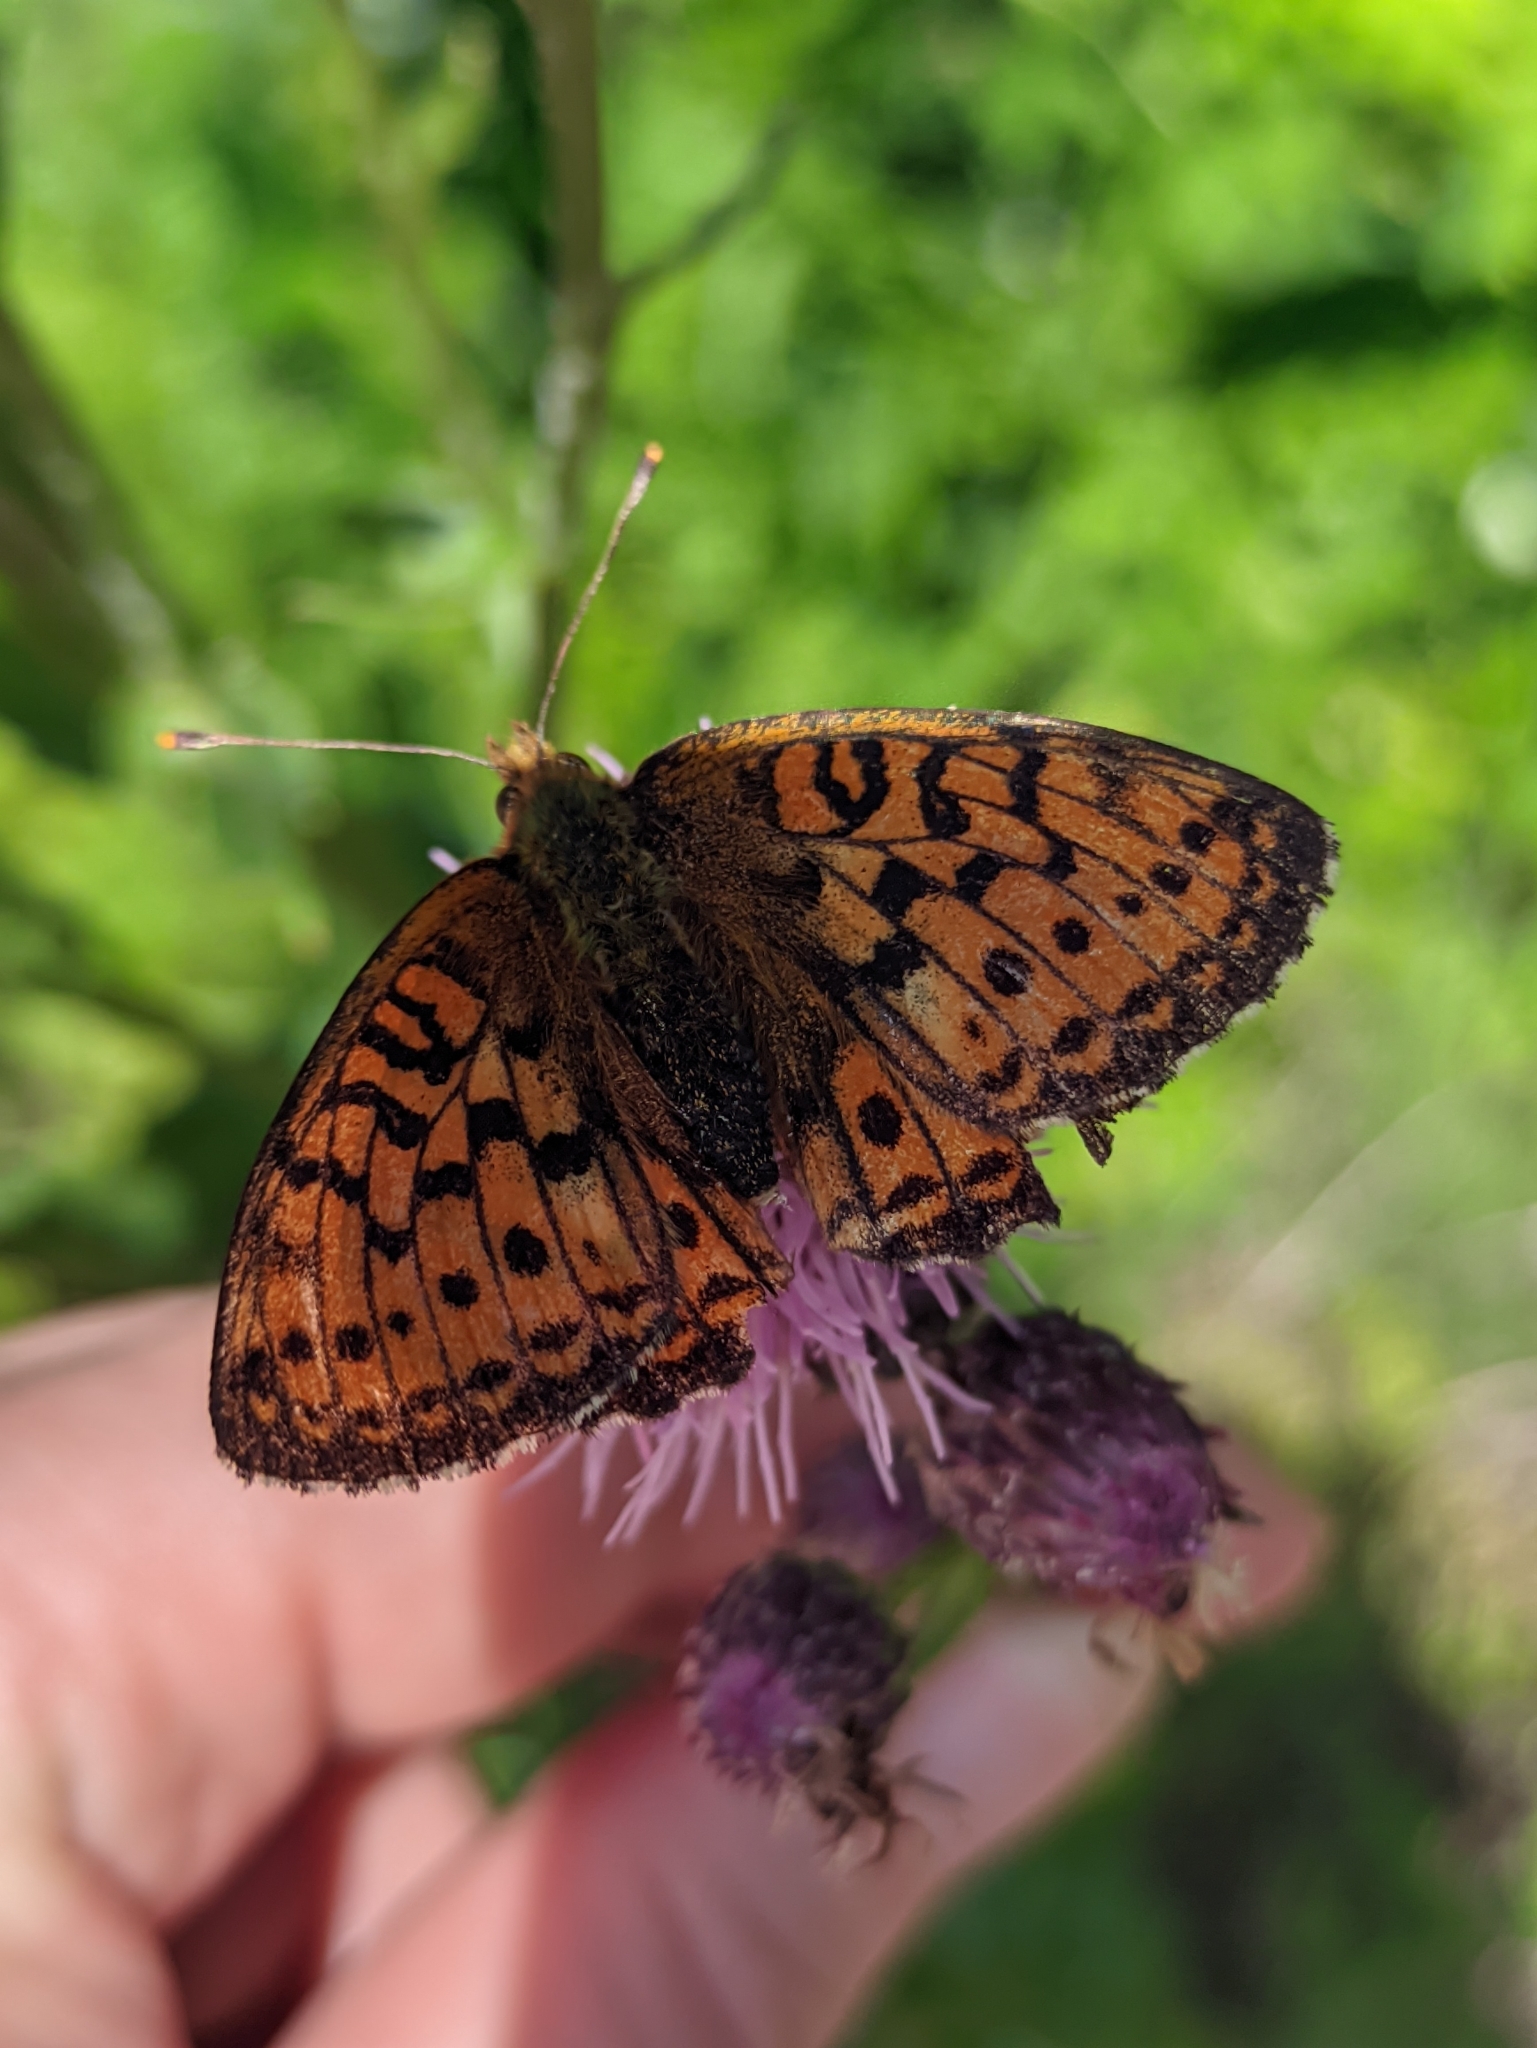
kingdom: Animalia
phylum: Arthropoda
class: Insecta
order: Lepidoptera
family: Nymphalidae
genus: Brenthis
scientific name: Brenthis ino
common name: Lesser marbled fritillary
